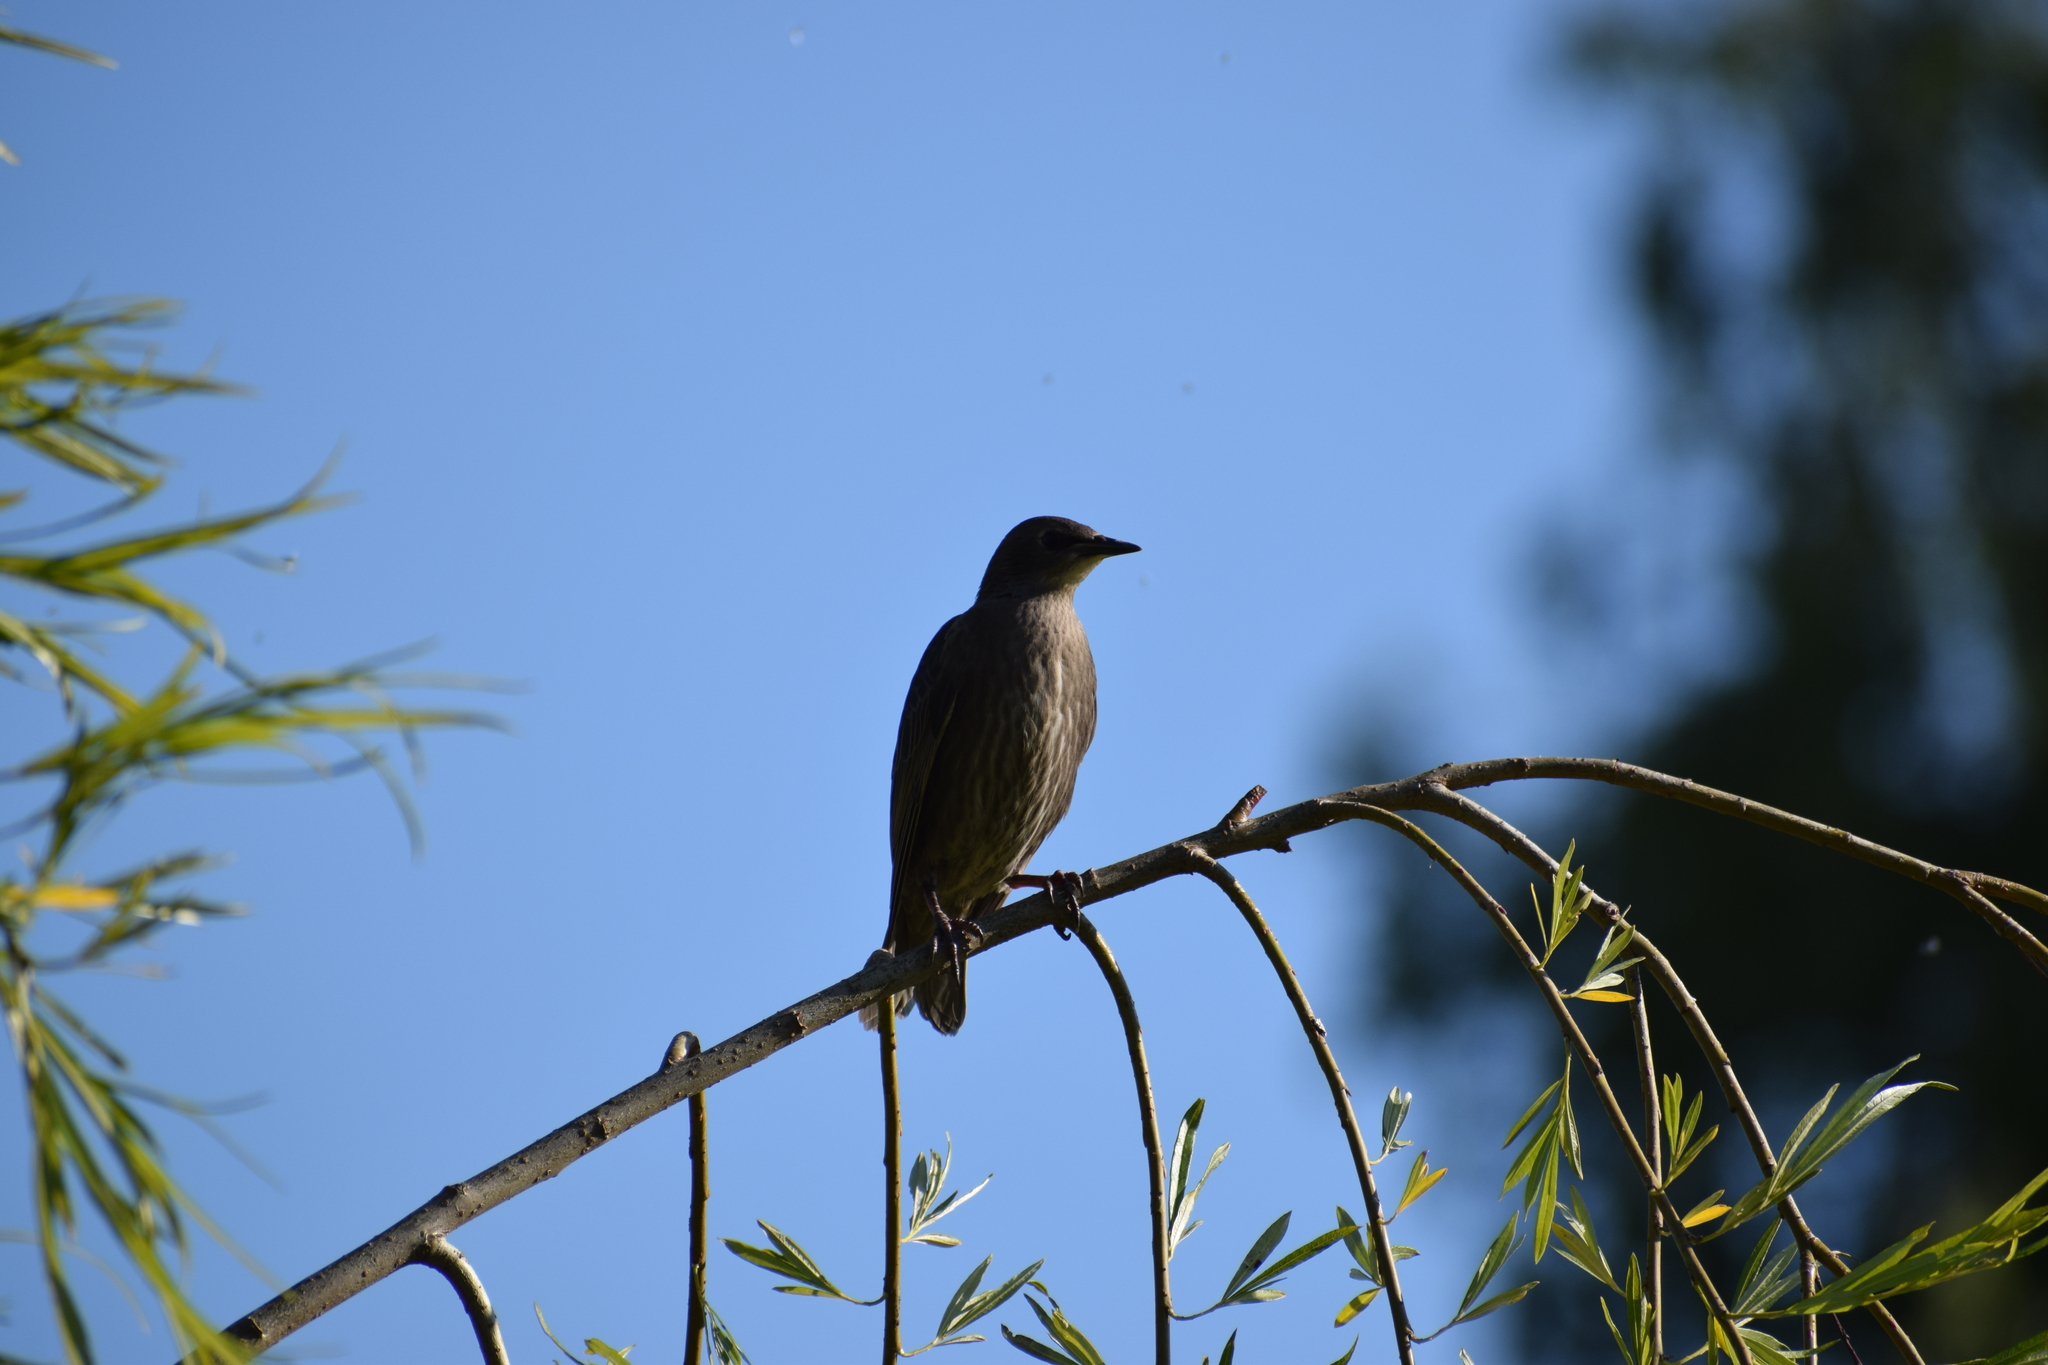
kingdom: Animalia
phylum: Chordata
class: Aves
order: Passeriformes
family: Sturnidae
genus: Sturnus
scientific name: Sturnus vulgaris
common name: Common starling
